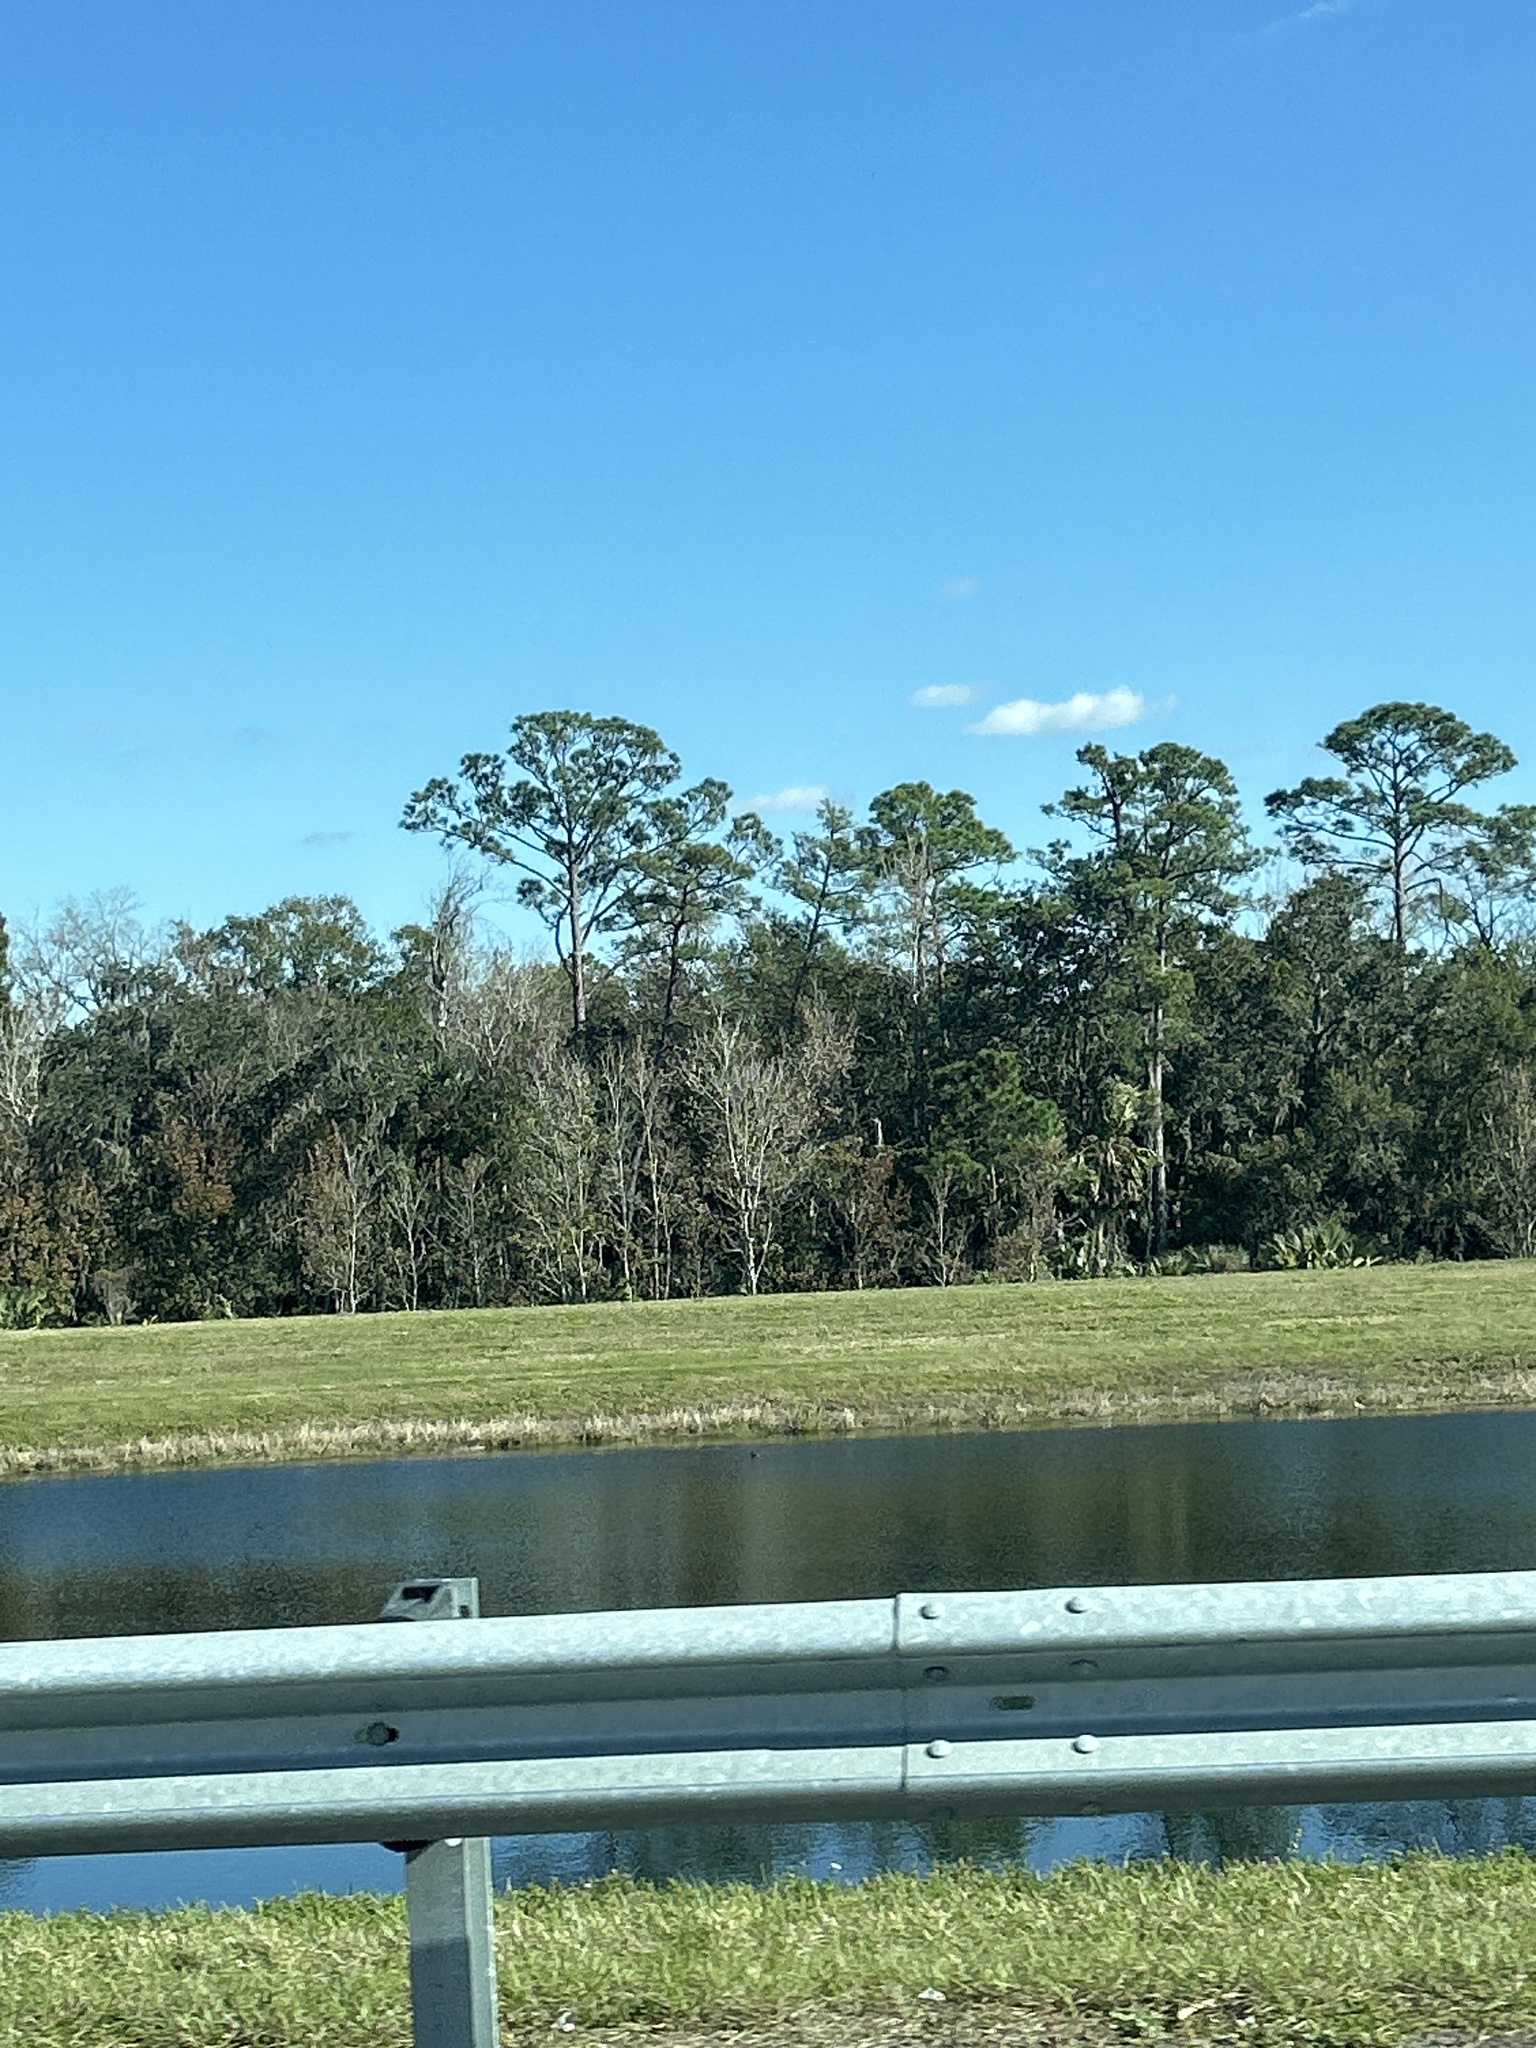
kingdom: Plantae
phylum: Tracheophyta
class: Pinopsida
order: Pinales
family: Pinaceae
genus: Pinus
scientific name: Pinus elliottii
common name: Slash pine
